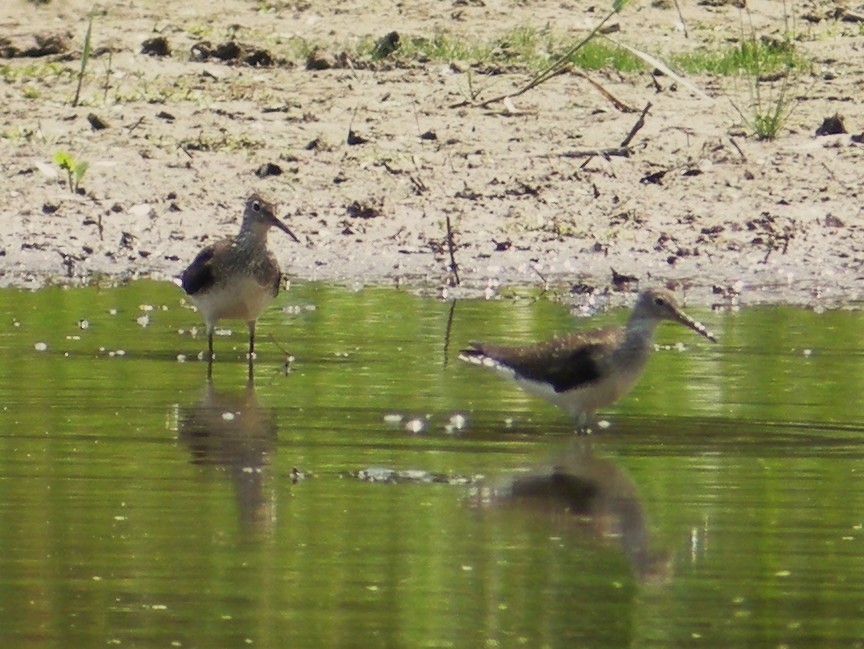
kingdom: Animalia
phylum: Chordata
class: Aves
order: Charadriiformes
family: Scolopacidae
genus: Tringa
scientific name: Tringa solitaria
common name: Solitary sandpiper
